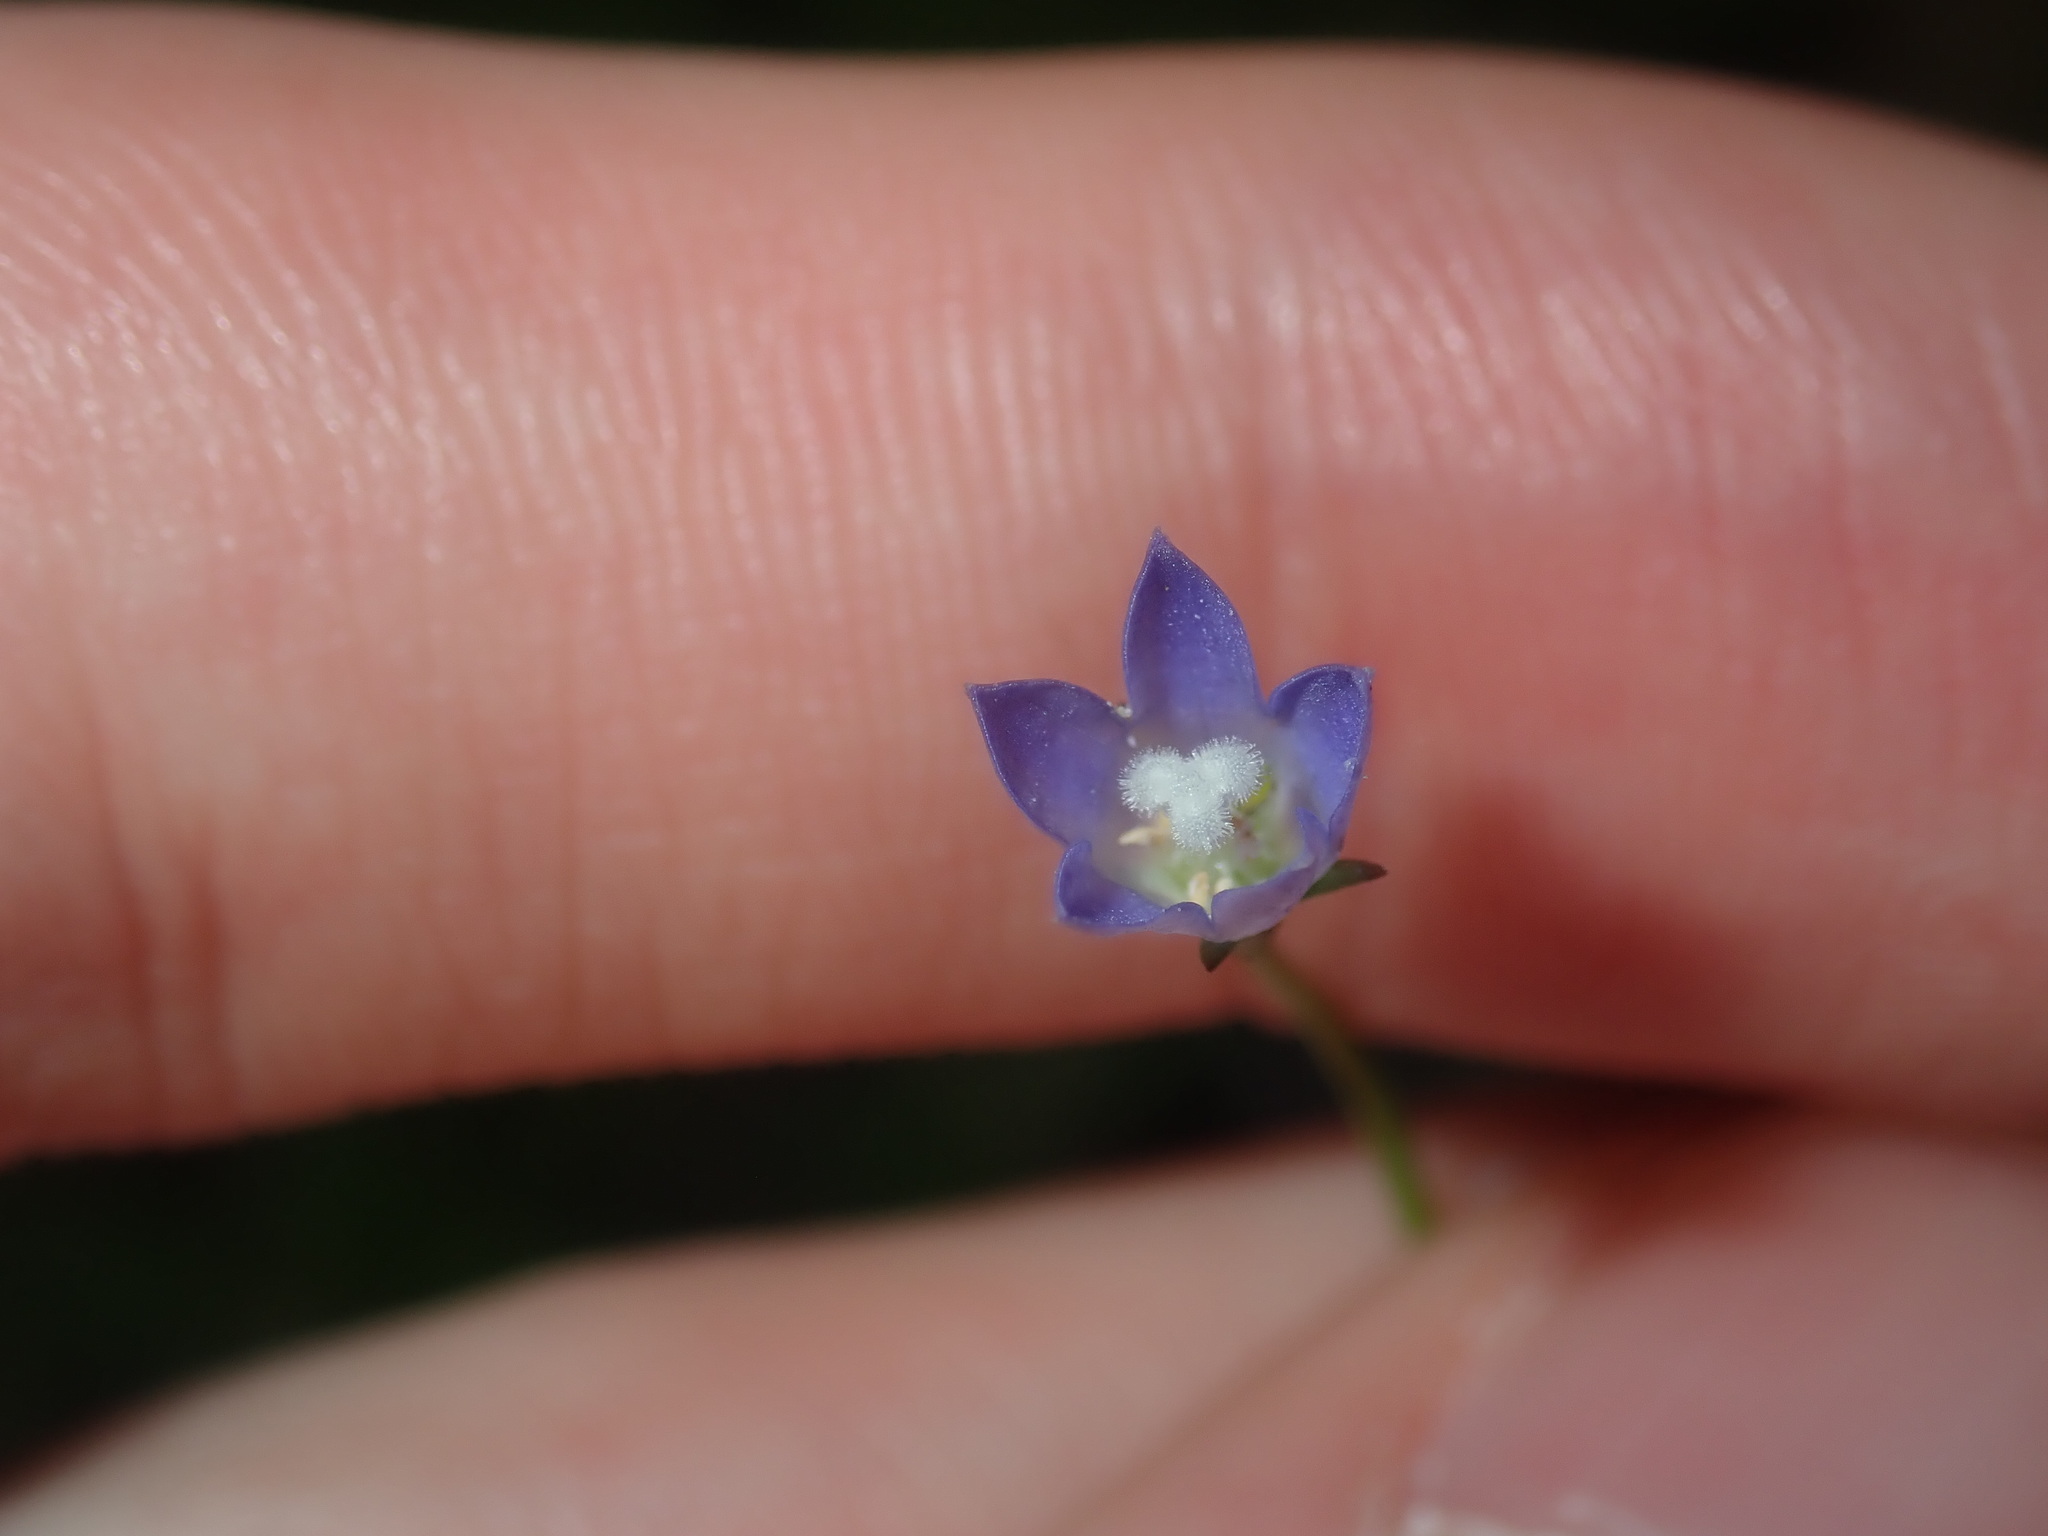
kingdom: Plantae
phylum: Tracheophyta
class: Magnoliopsida
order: Asterales
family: Campanulaceae
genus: Wahlenbergia
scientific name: Wahlenbergia gracilis
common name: Harebell
